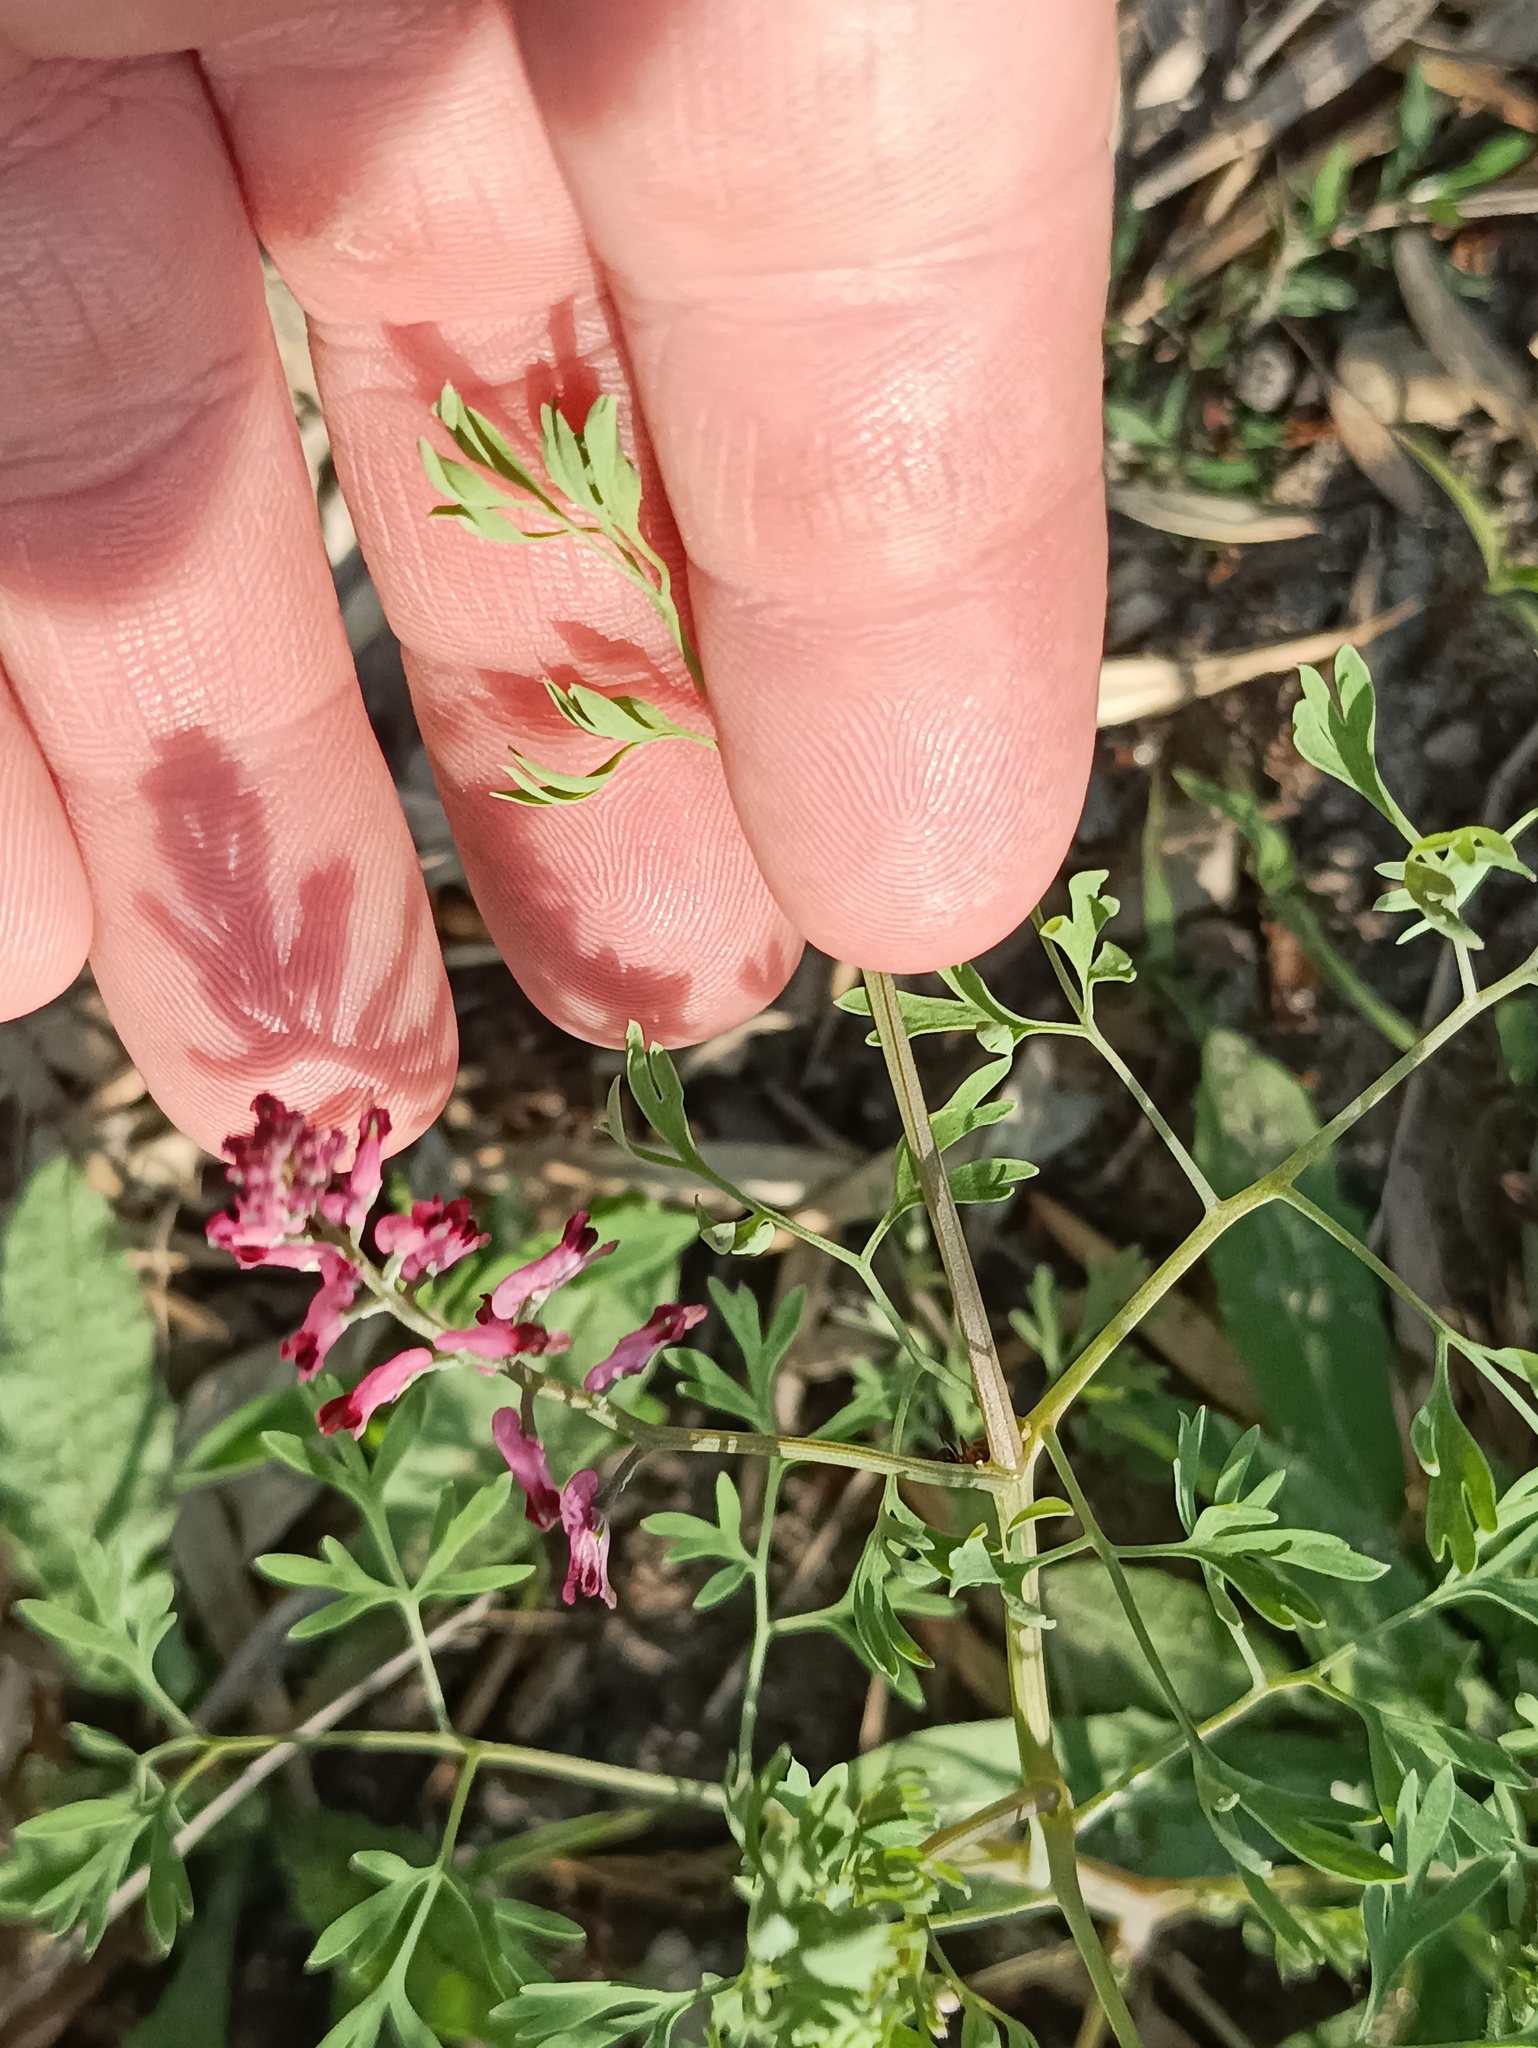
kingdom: Plantae
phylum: Tracheophyta
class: Magnoliopsida
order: Ranunculales
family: Papaveraceae
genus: Fumaria
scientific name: Fumaria schleicheri
